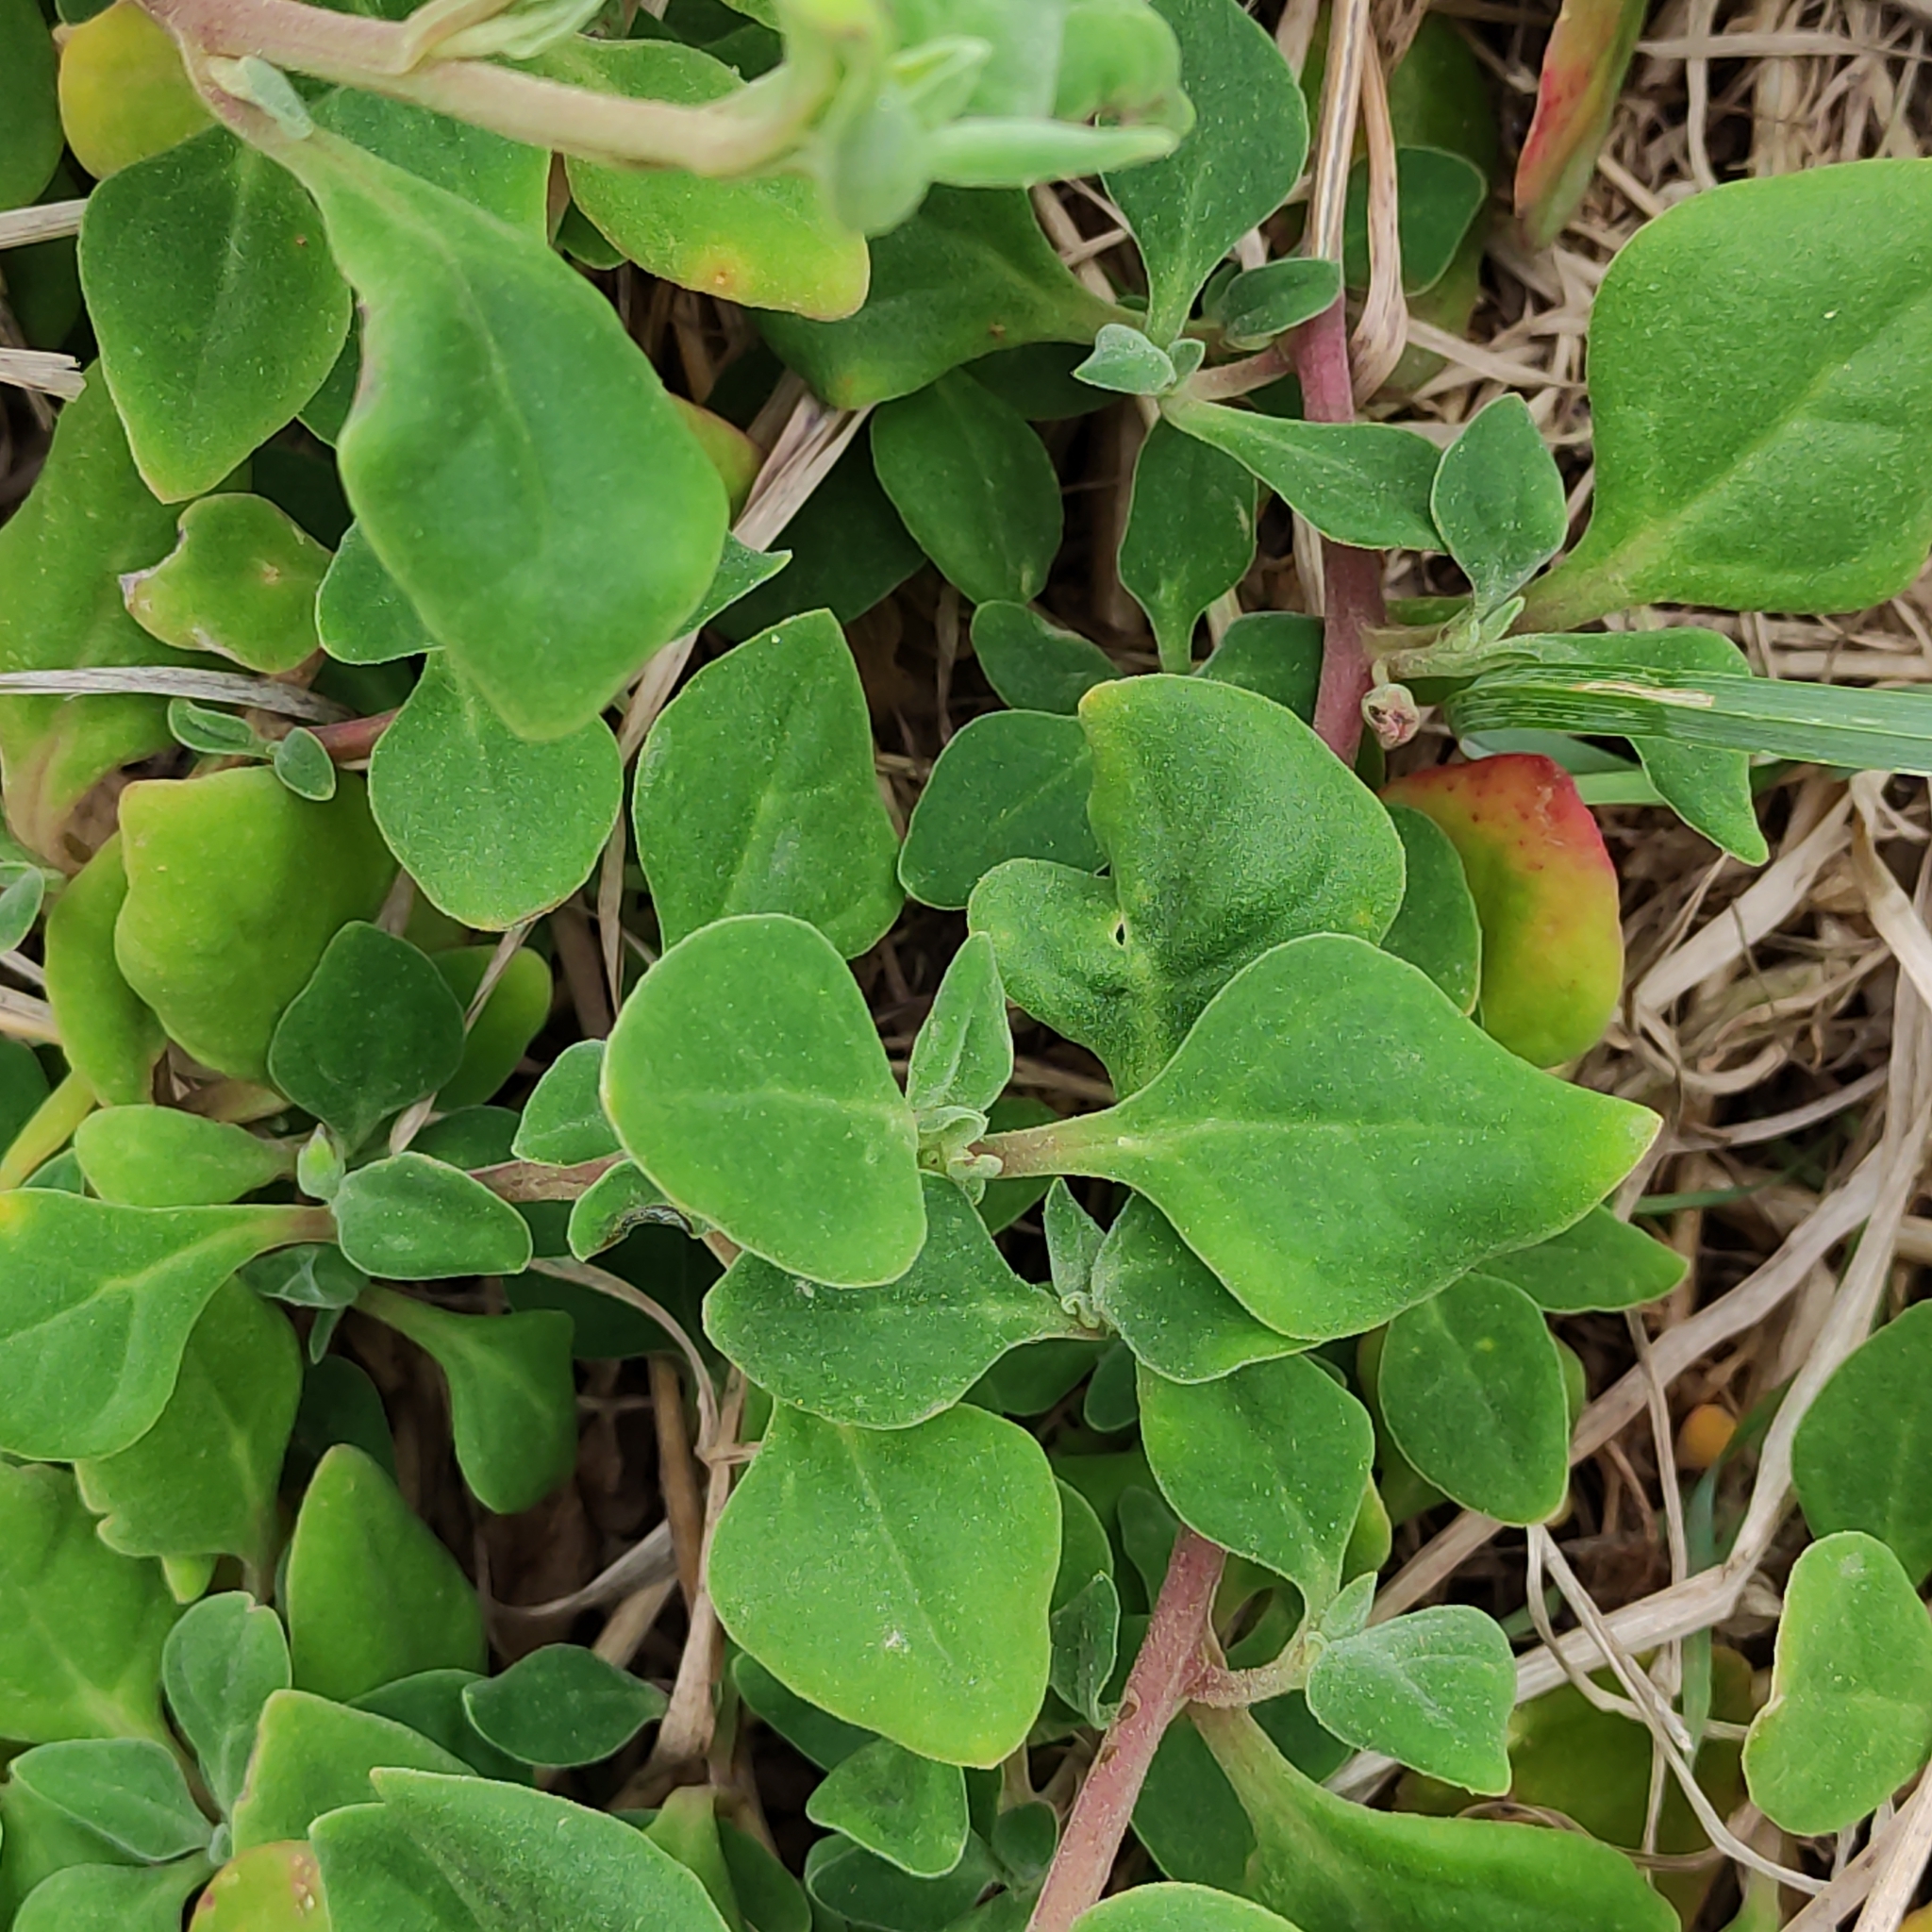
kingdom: Plantae
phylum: Tracheophyta
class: Magnoliopsida
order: Caryophyllales
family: Aizoaceae
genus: Tetragonia
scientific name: Tetragonia implexicoma
